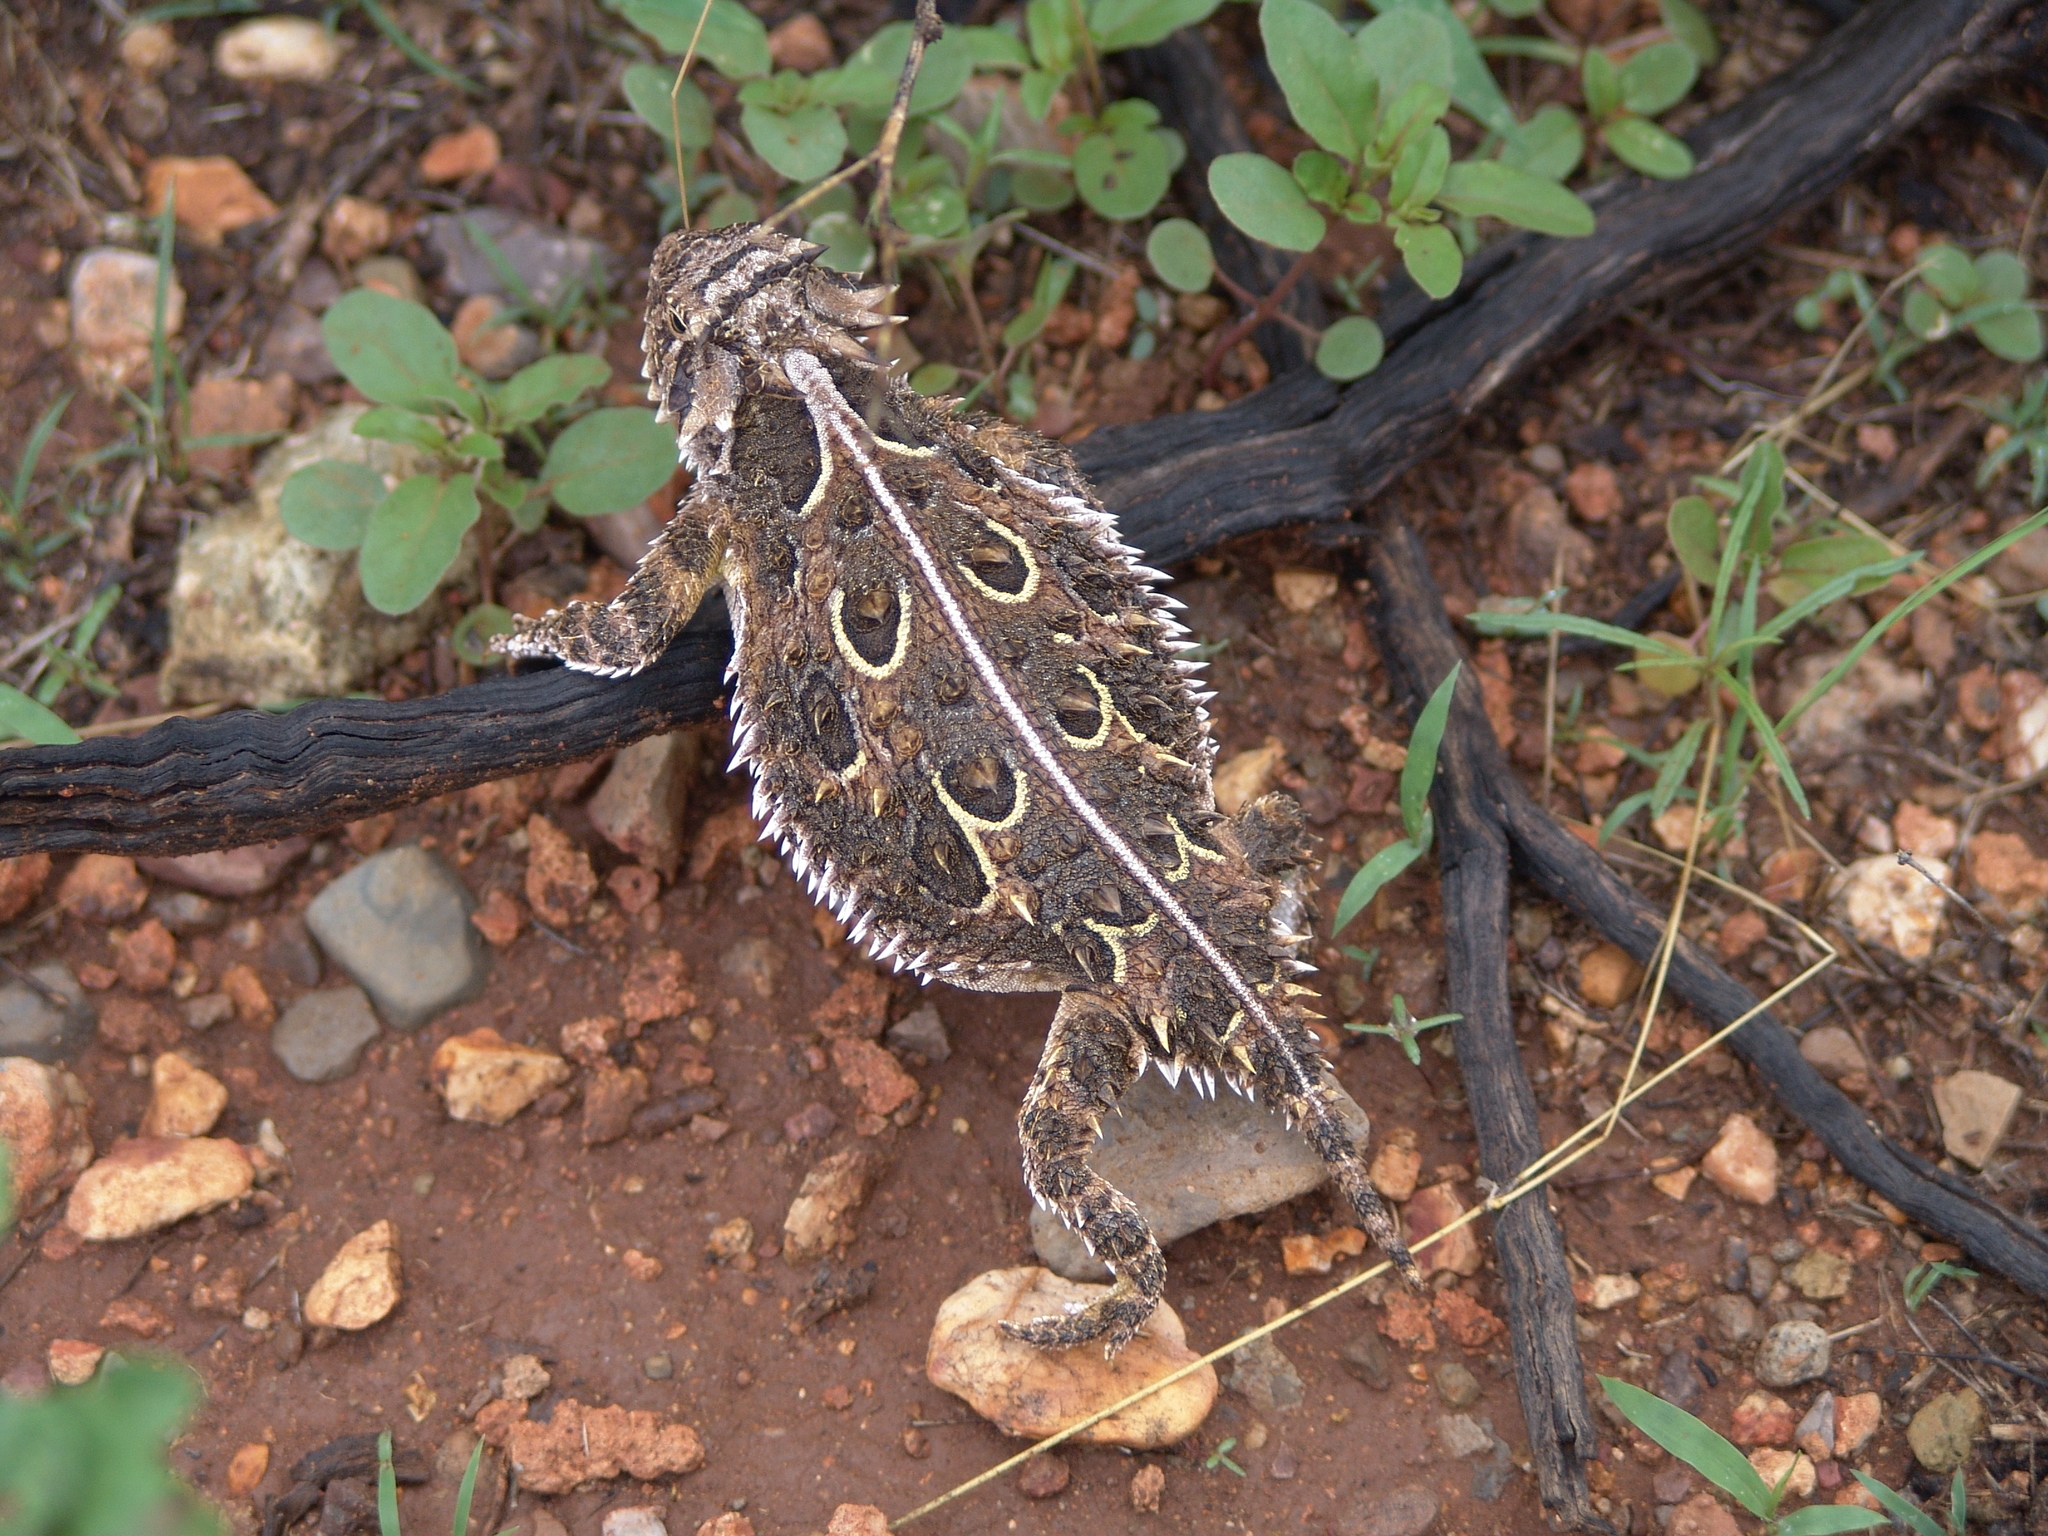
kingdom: Animalia
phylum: Chordata
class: Squamata
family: Phrynosomatidae
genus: Phrynosoma
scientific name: Phrynosoma cornutum
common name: Texas horned lizard
